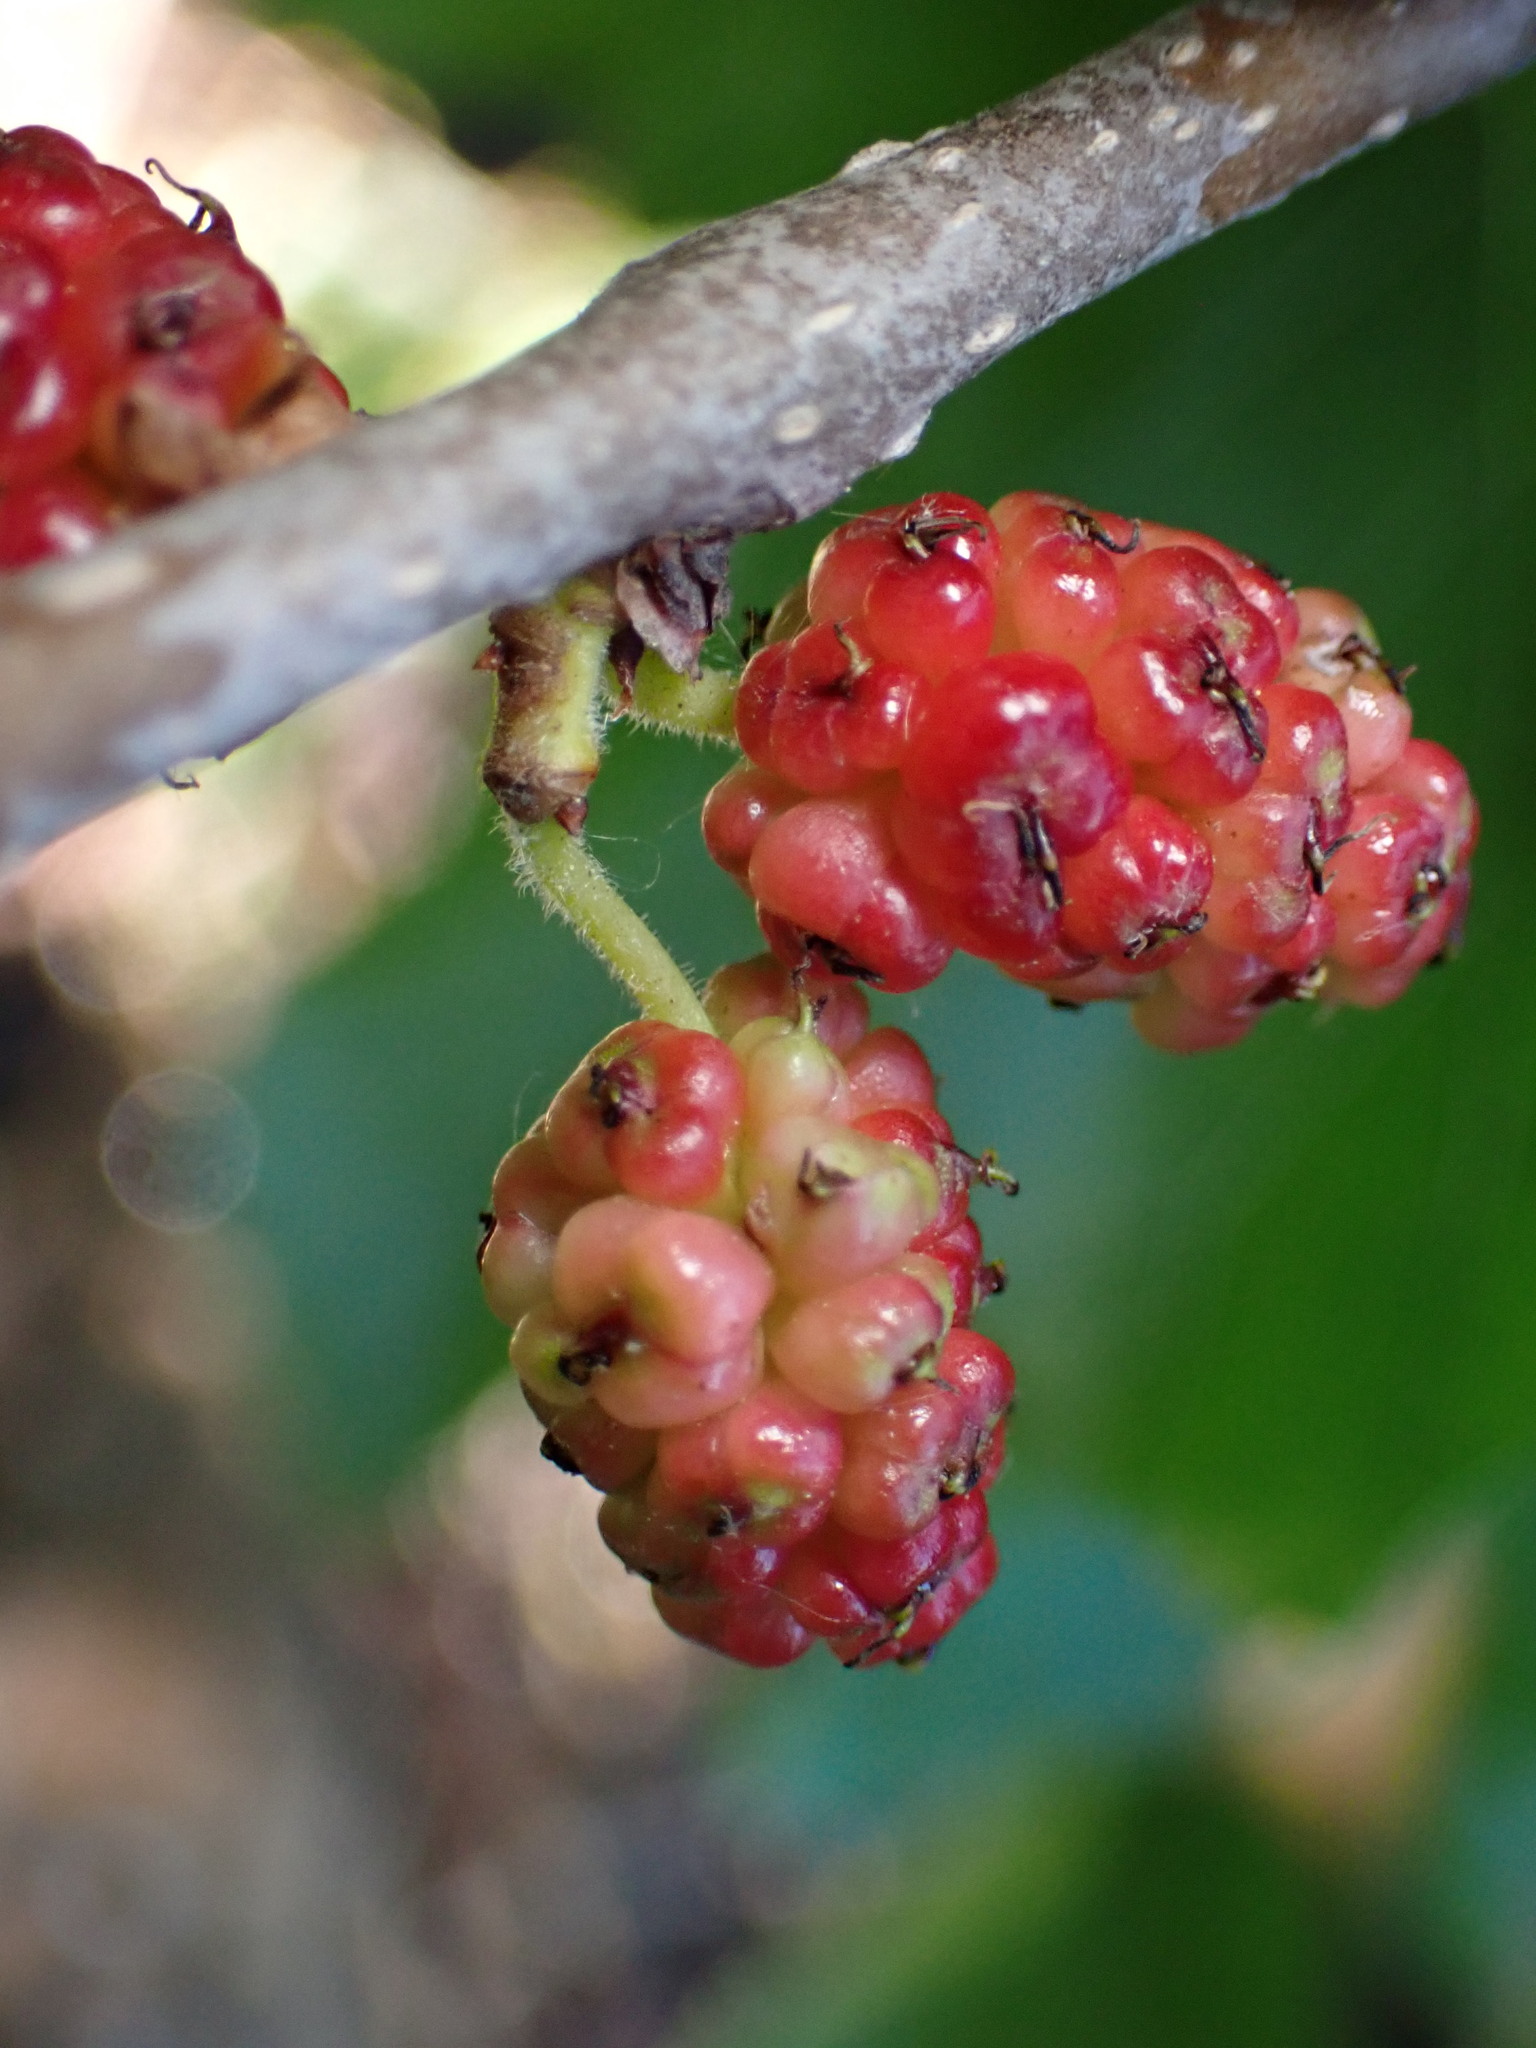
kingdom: Plantae
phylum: Tracheophyta
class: Magnoliopsida
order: Rosales
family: Moraceae
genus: Morus
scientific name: Morus alba
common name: White mulberry
